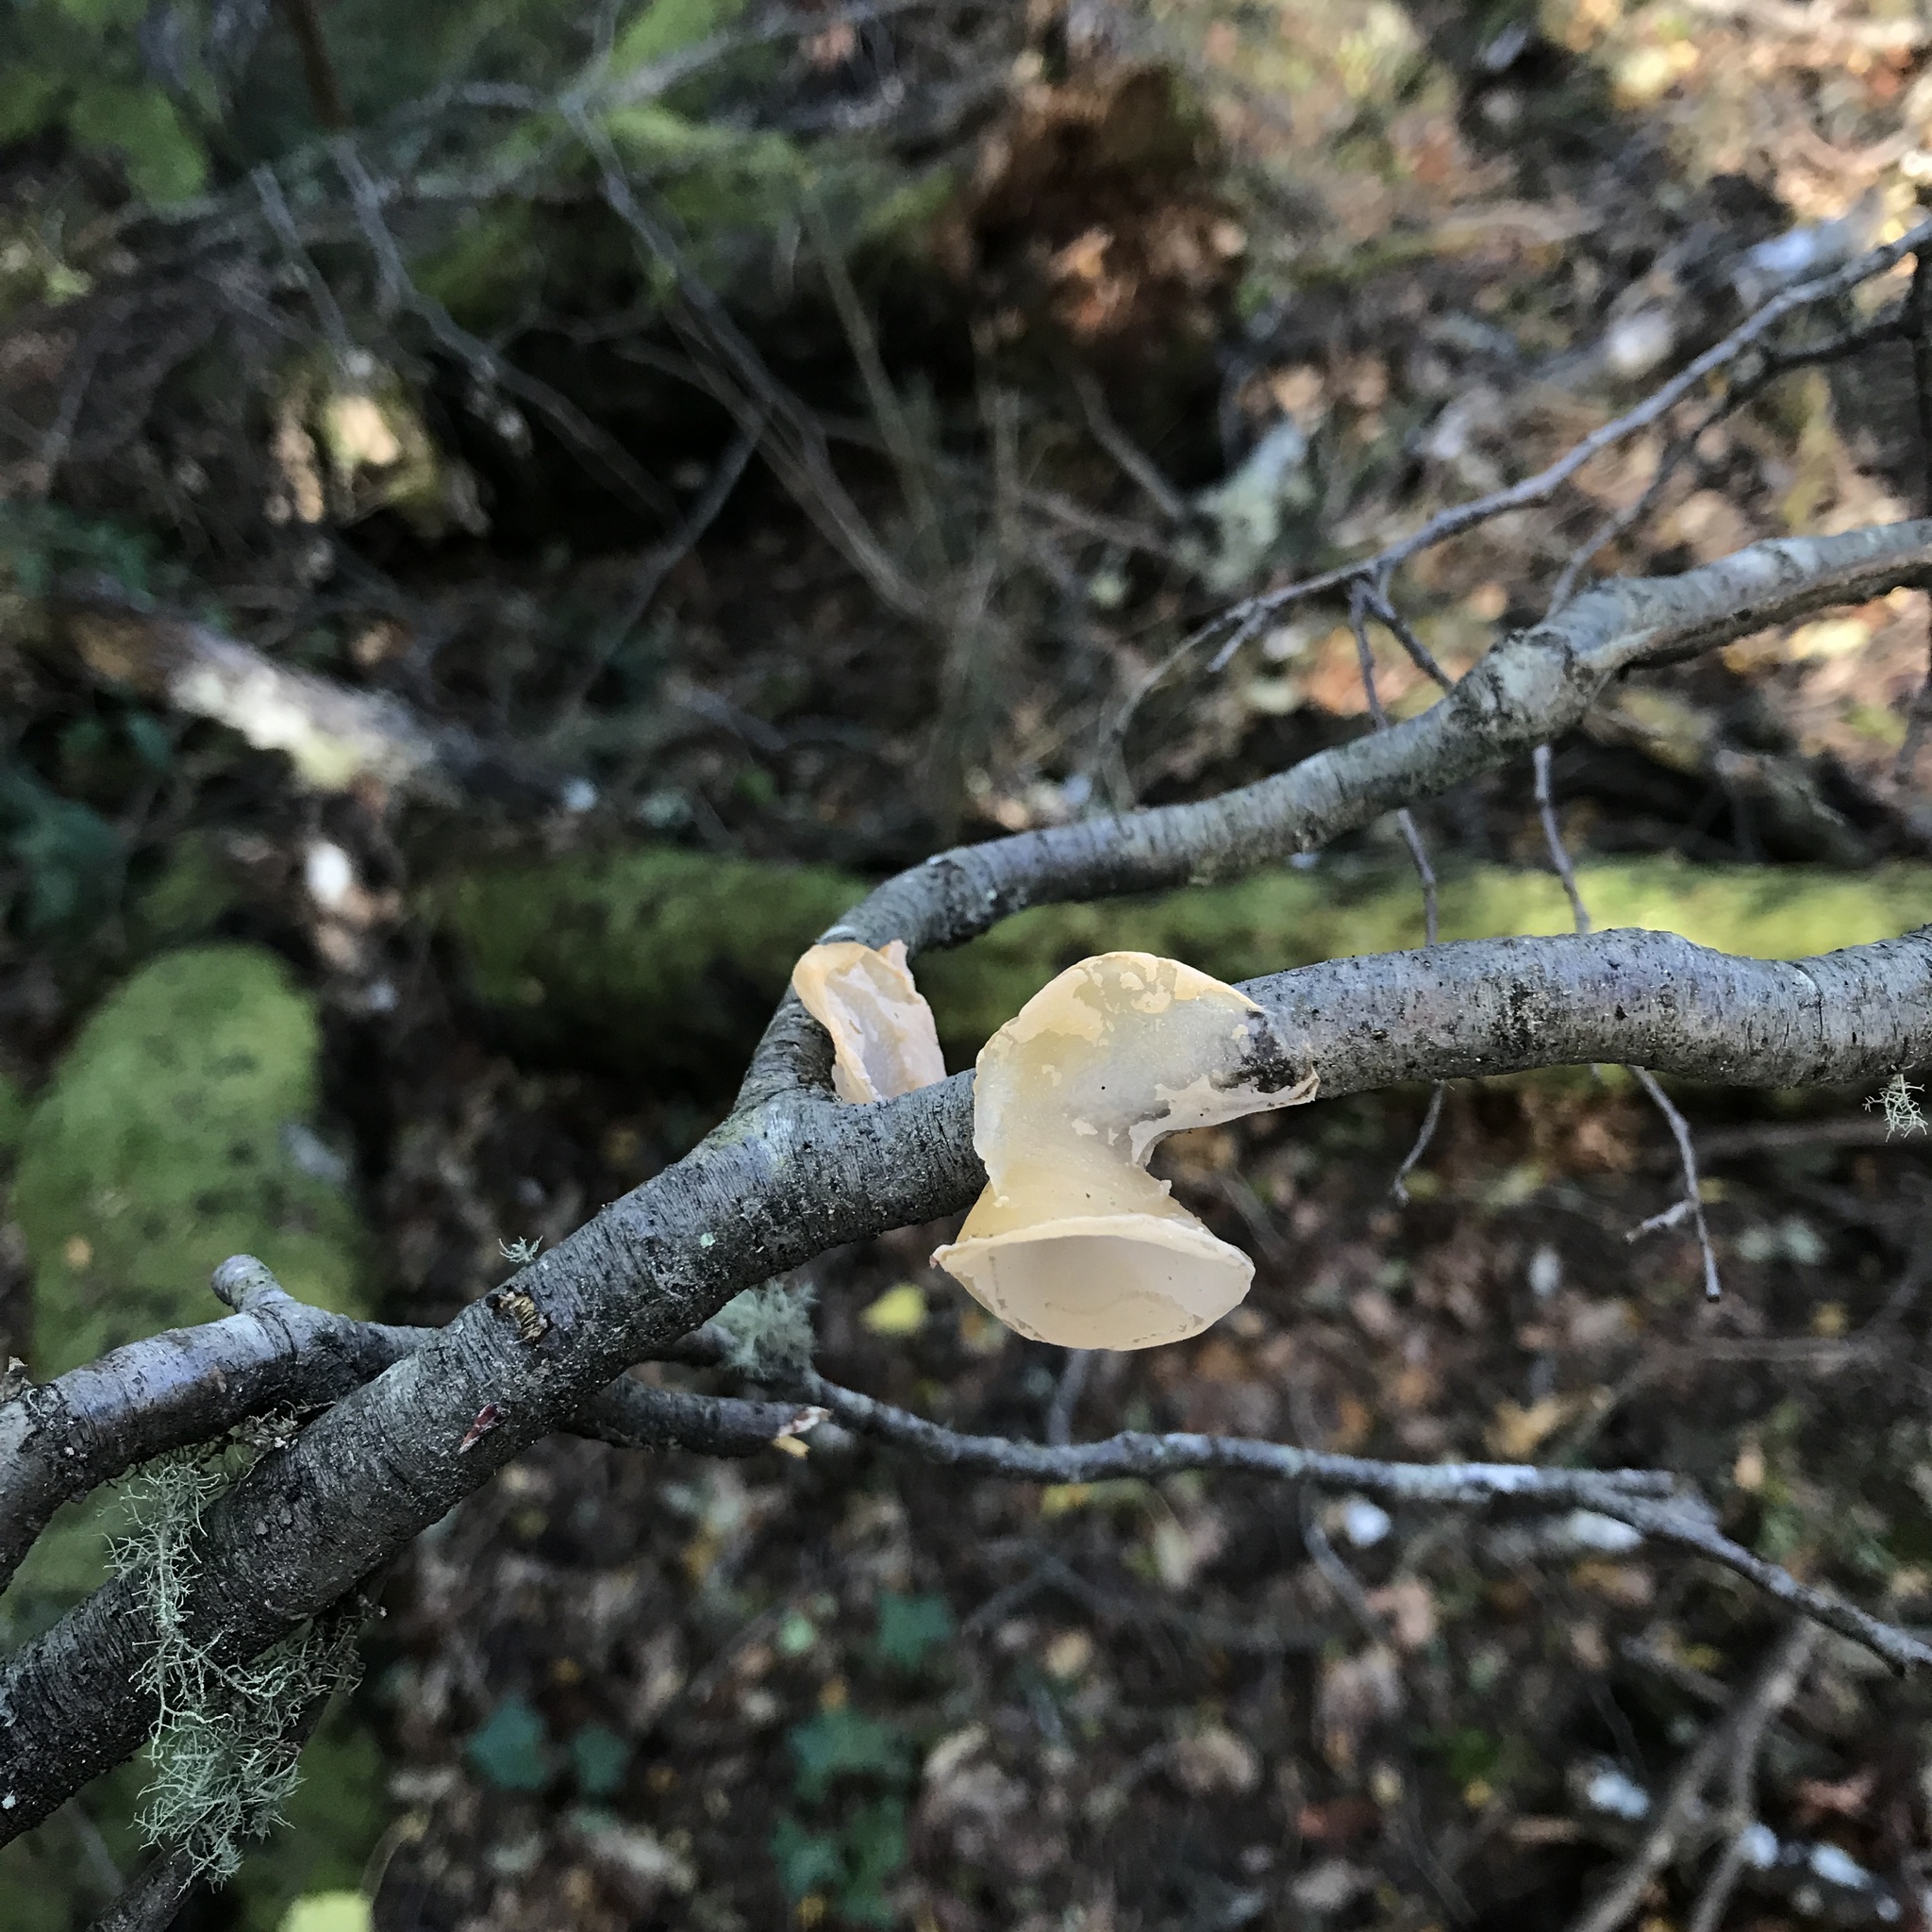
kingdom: Fungi
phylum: Basidiomycota
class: Agaricomycetes
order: Russulales
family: Stereaceae
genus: Aleurodiscus
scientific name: Aleurodiscus vitellinus
